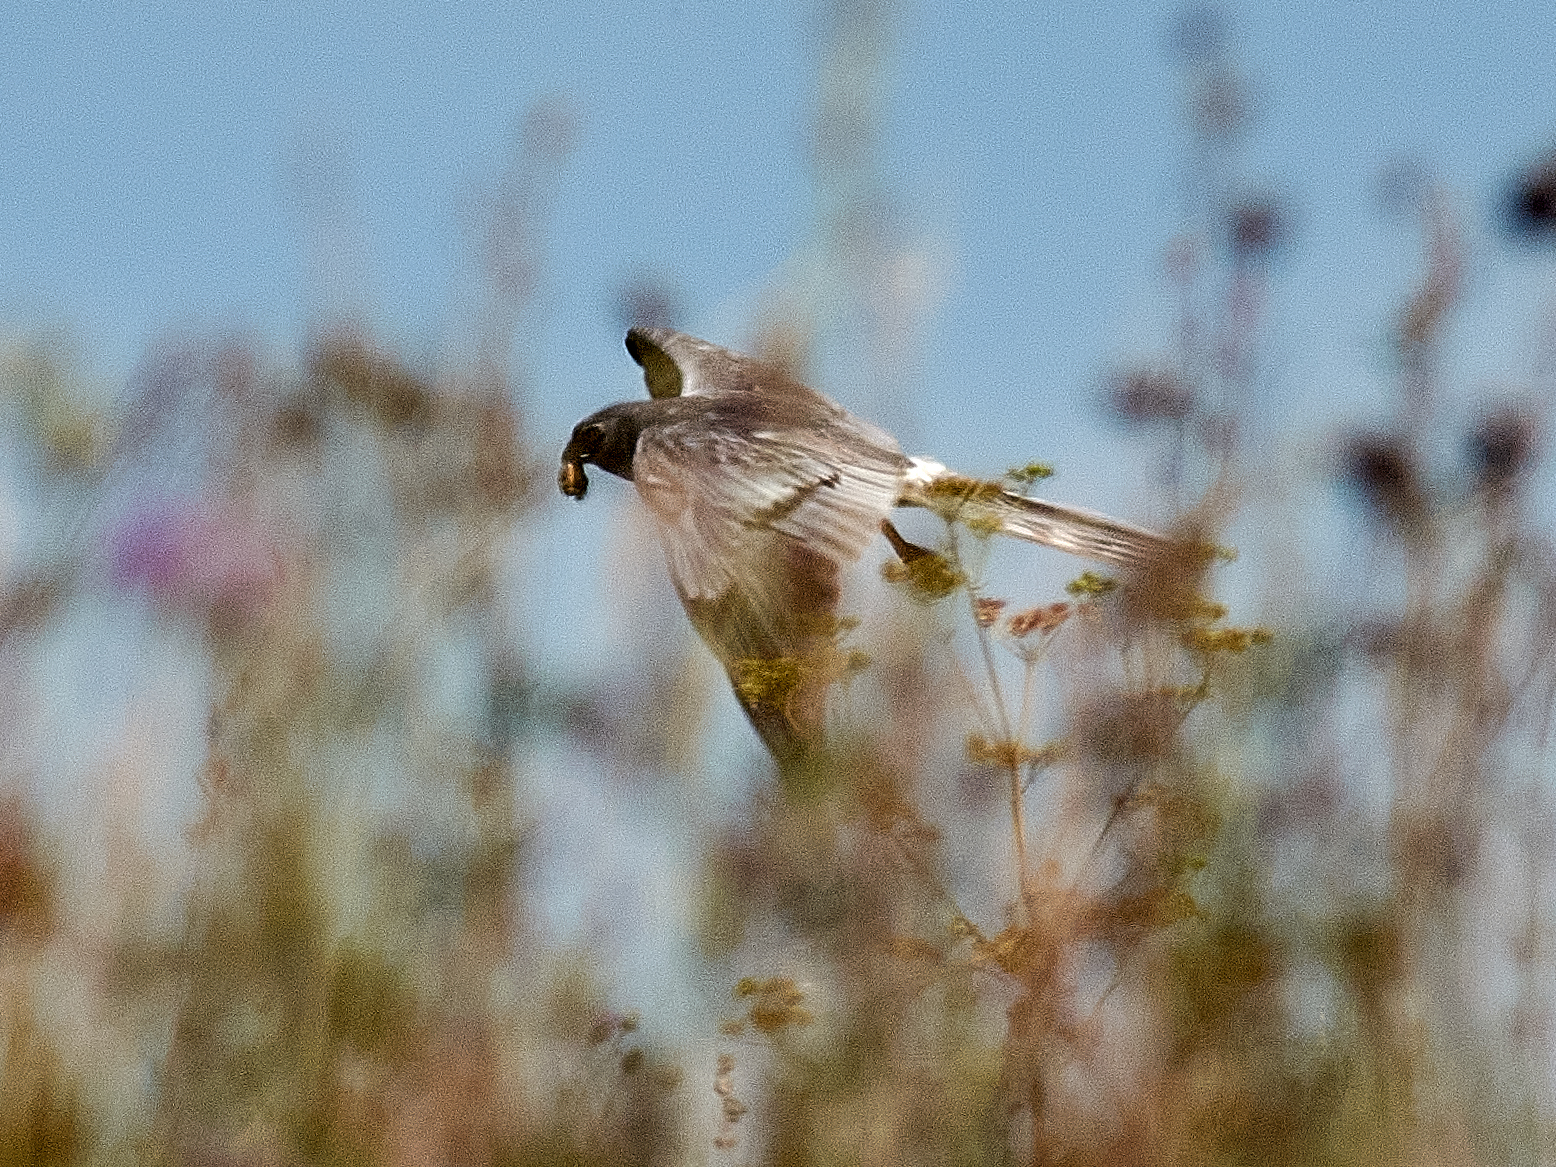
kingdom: Animalia
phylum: Chordata
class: Aves
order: Accipitriformes
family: Accipitridae
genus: Circus
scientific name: Circus pygargus
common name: Montagu's harrier
